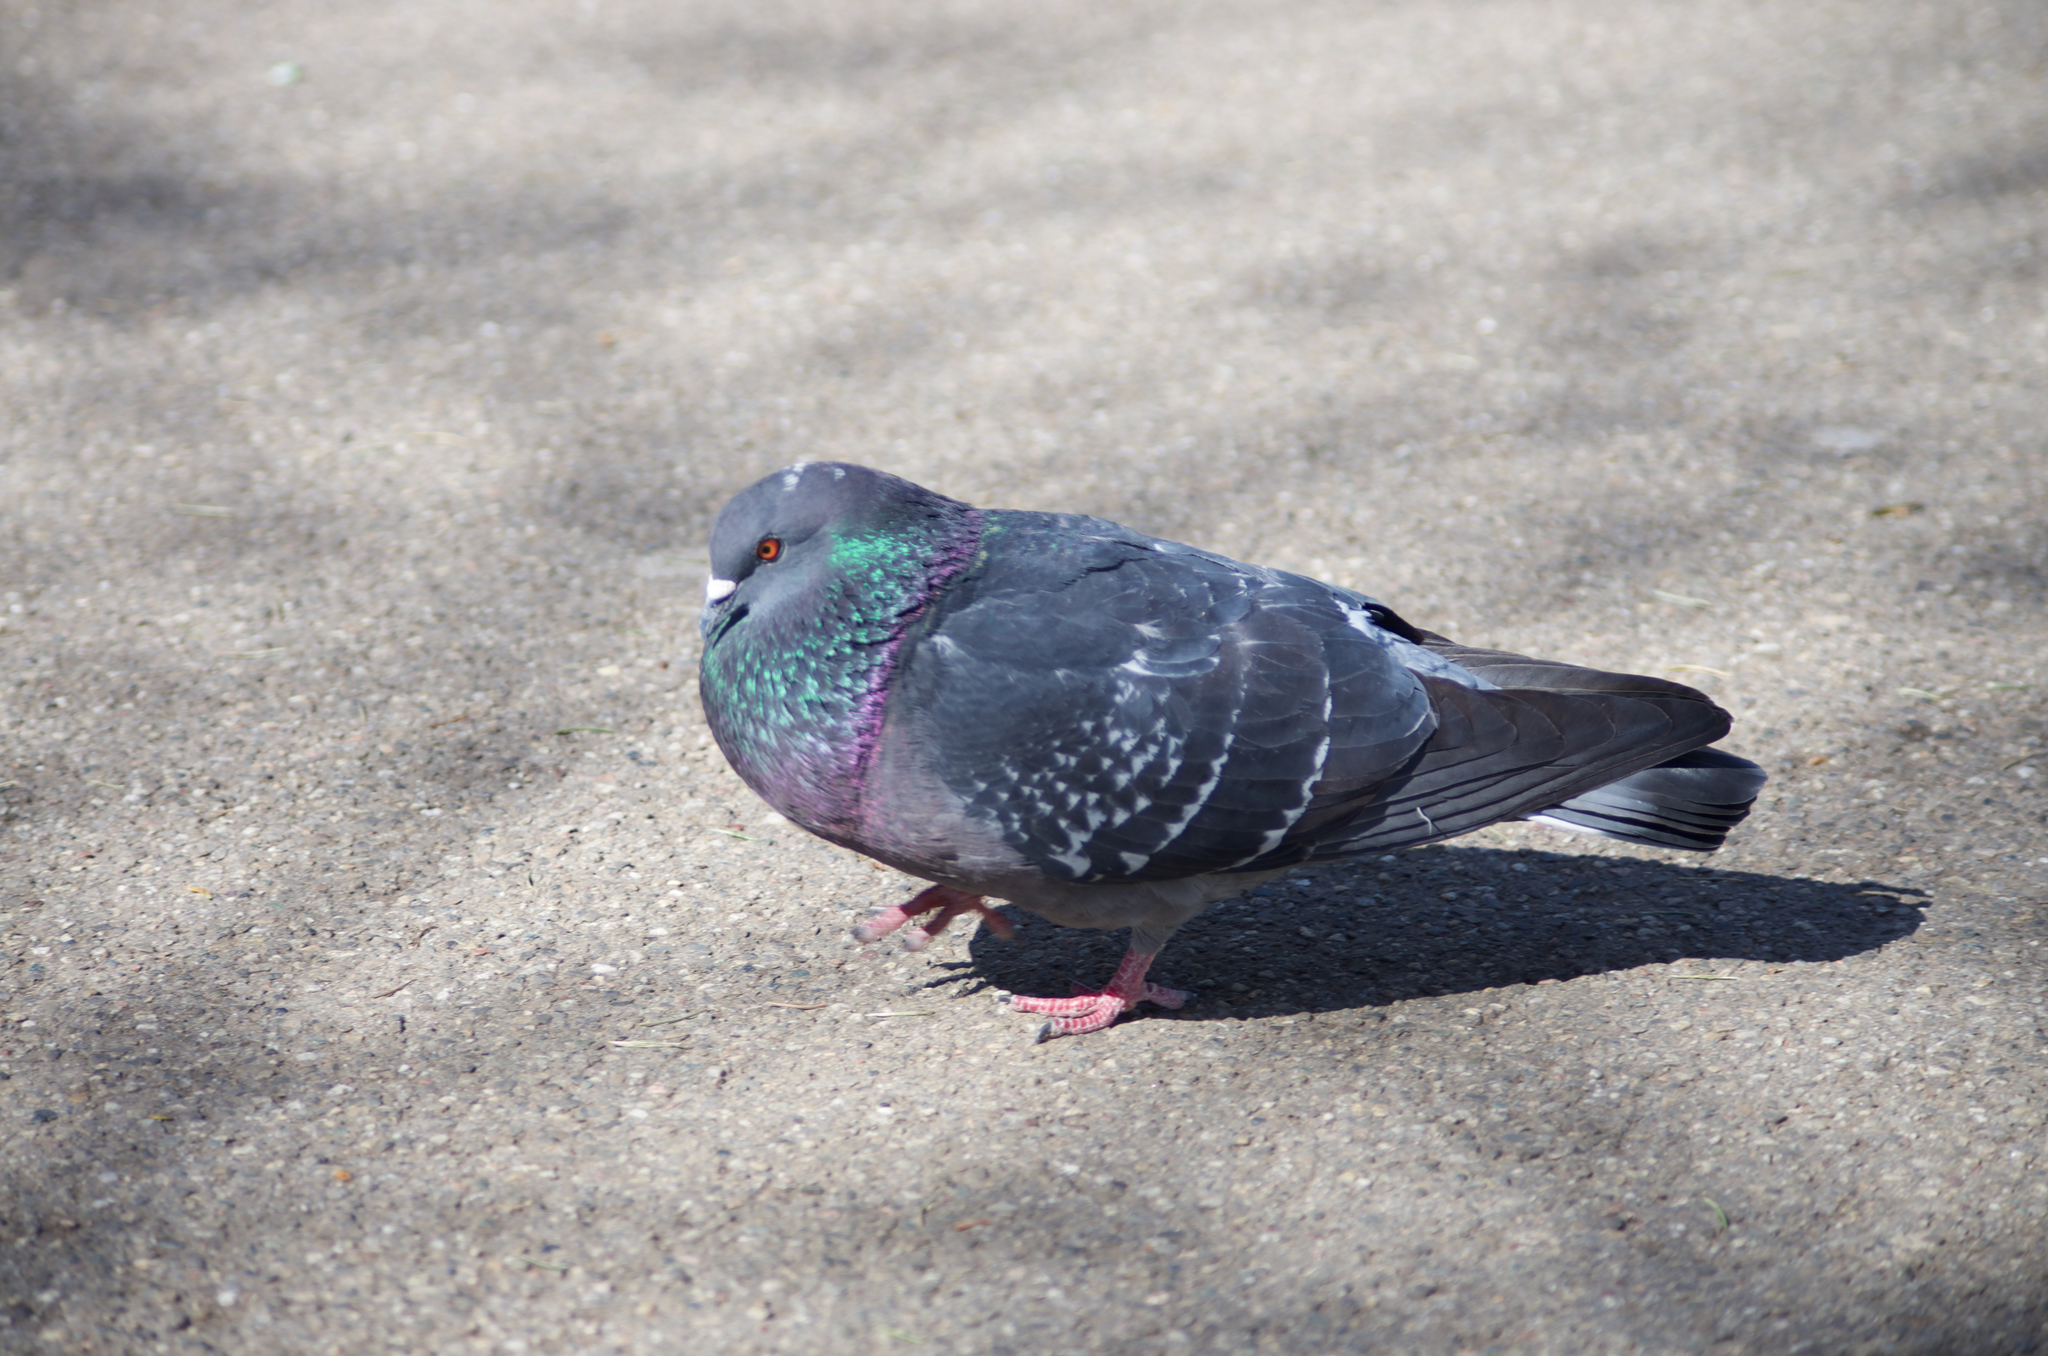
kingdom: Animalia
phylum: Chordata
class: Aves
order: Columbiformes
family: Columbidae
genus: Columba
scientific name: Columba livia
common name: Rock pigeon
